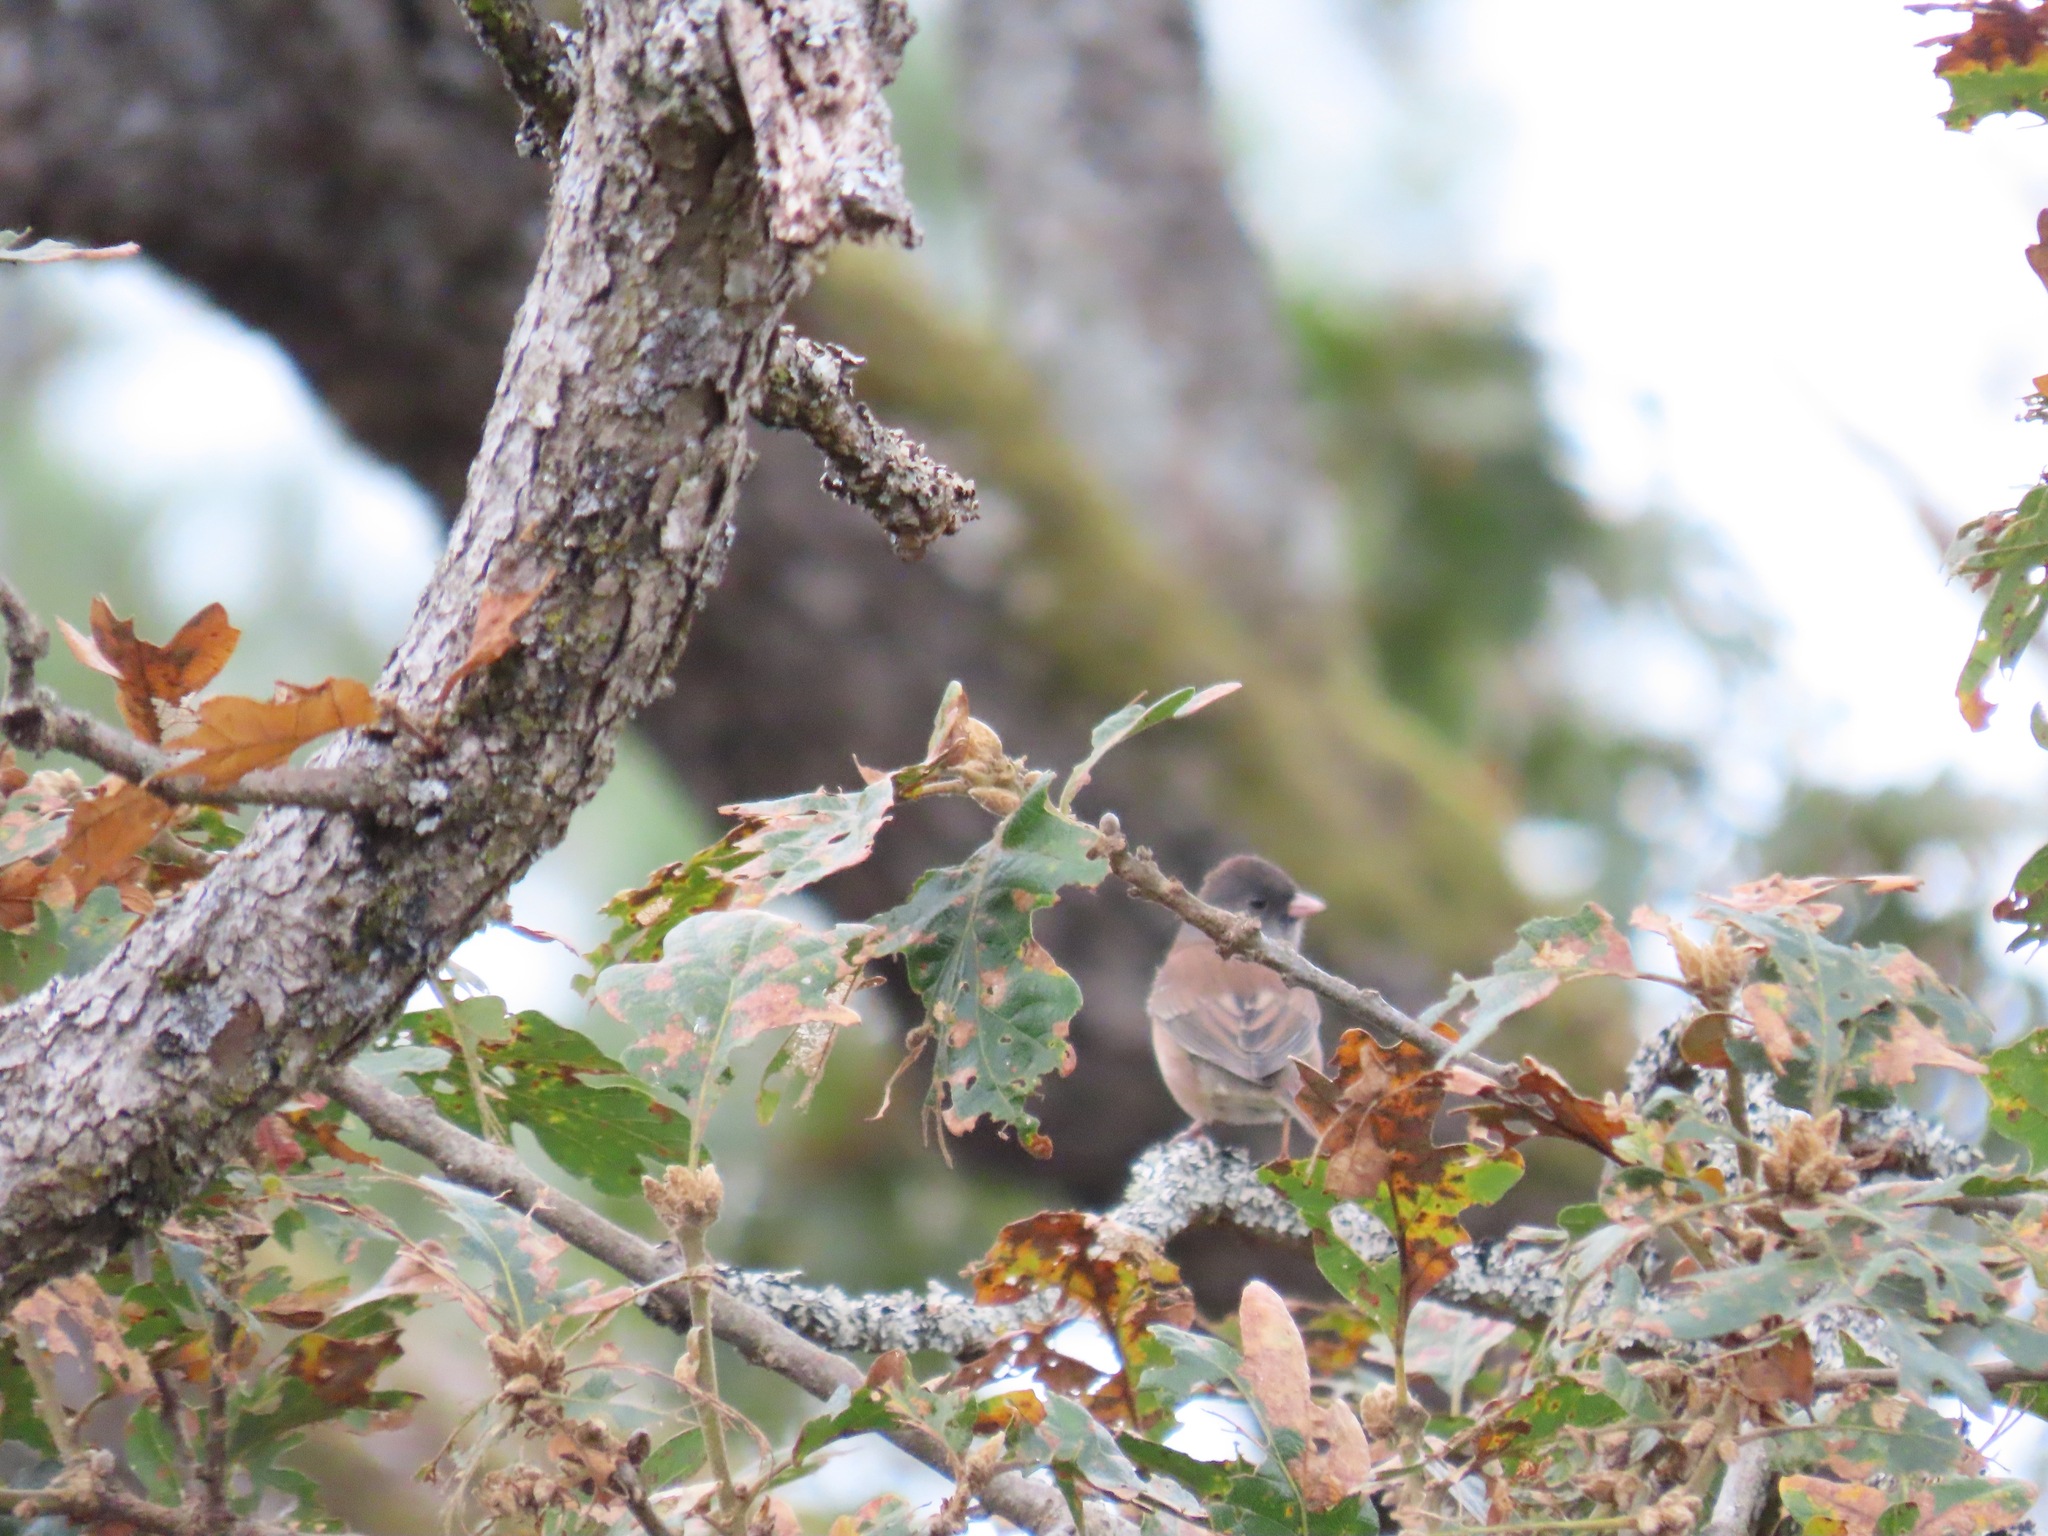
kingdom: Animalia
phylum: Chordata
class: Aves
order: Passeriformes
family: Passerellidae
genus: Junco
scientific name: Junco hyemalis
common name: Dark-eyed junco
